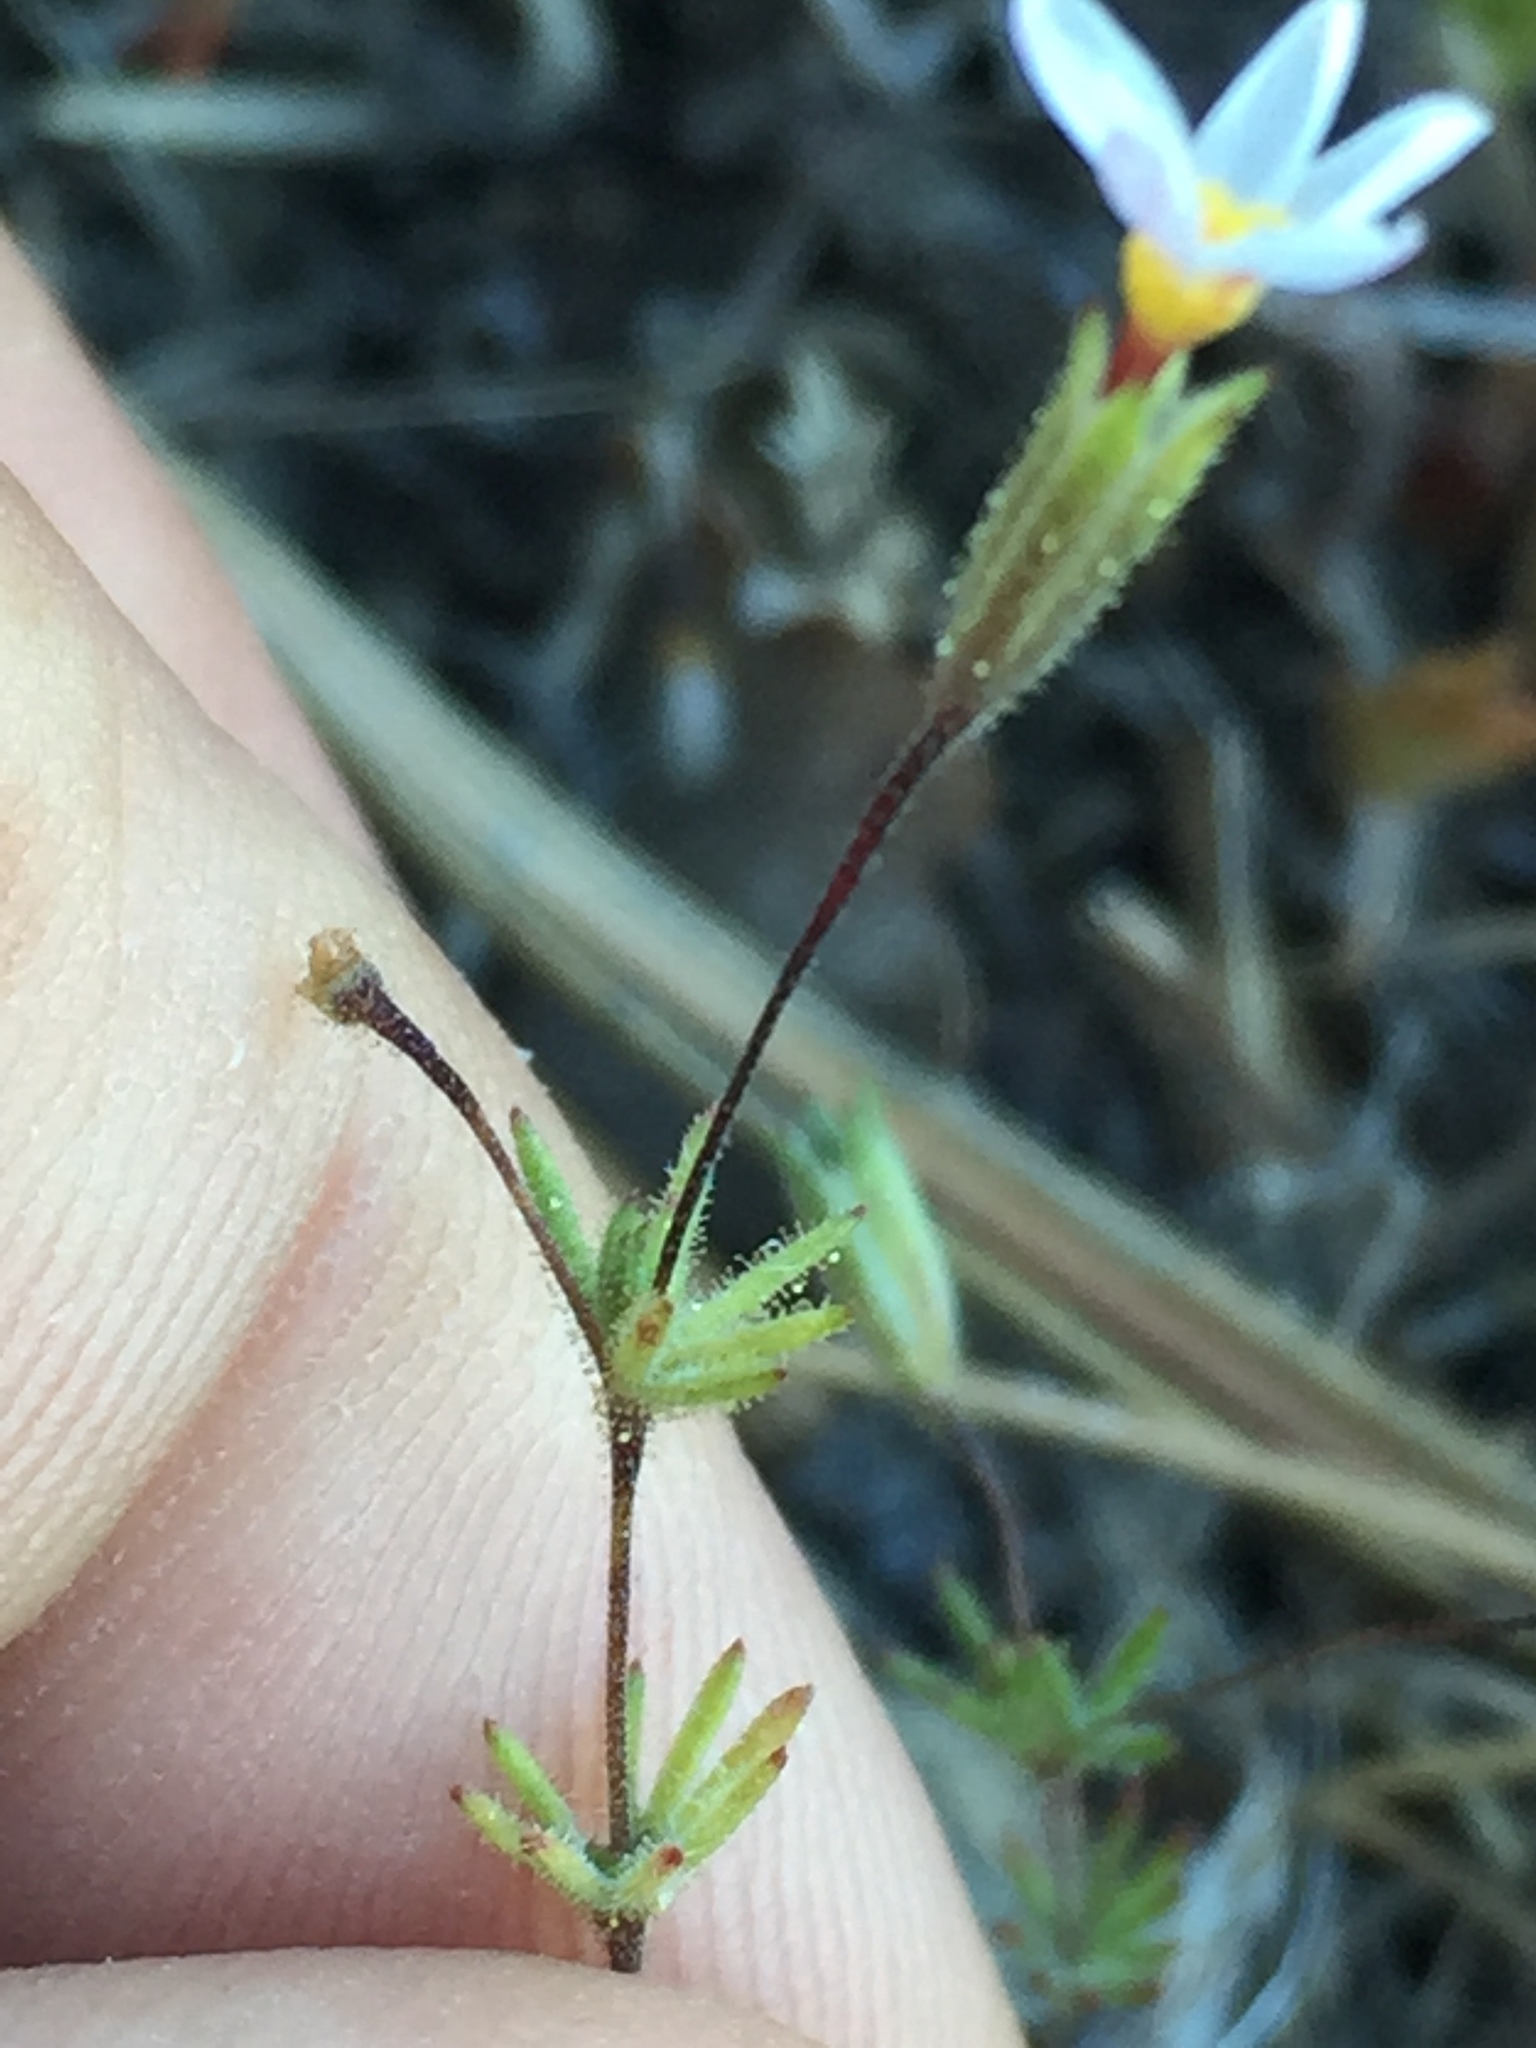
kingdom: Plantae
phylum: Tracheophyta
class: Magnoliopsida
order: Ericales
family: Polemoniaceae
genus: Leptosiphon
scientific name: Leptosiphon bolanderi
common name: Bolander's linanthus
